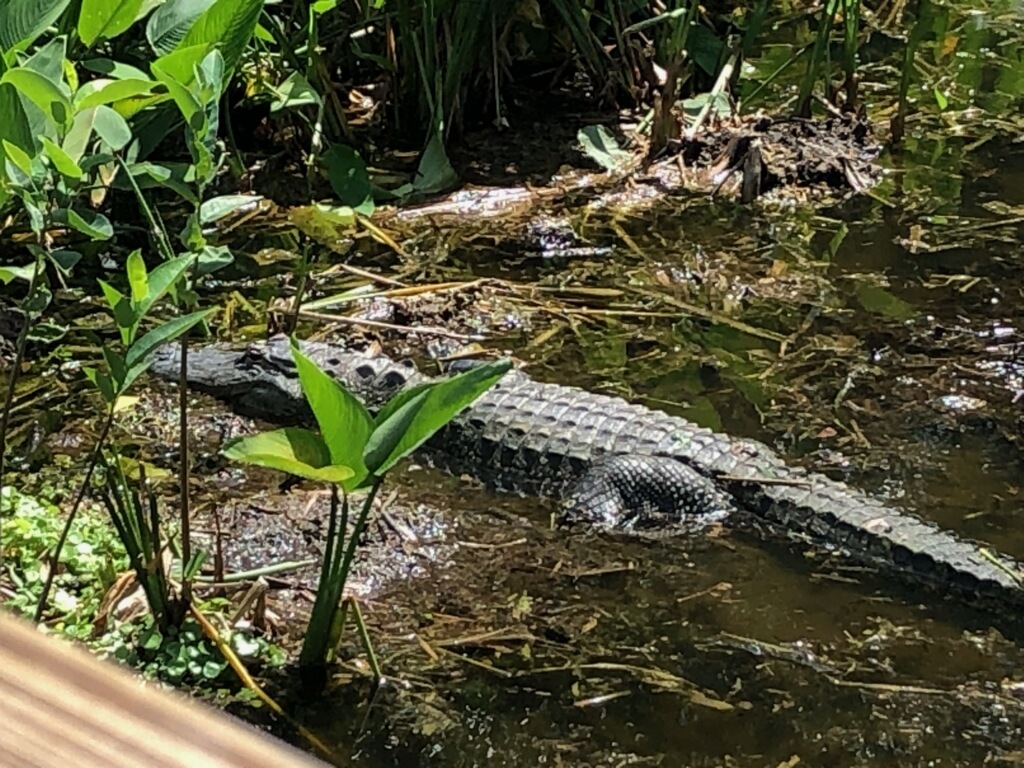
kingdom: Animalia
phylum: Chordata
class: Crocodylia
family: Alligatoridae
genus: Alligator
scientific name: Alligator mississippiensis
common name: American alligator
